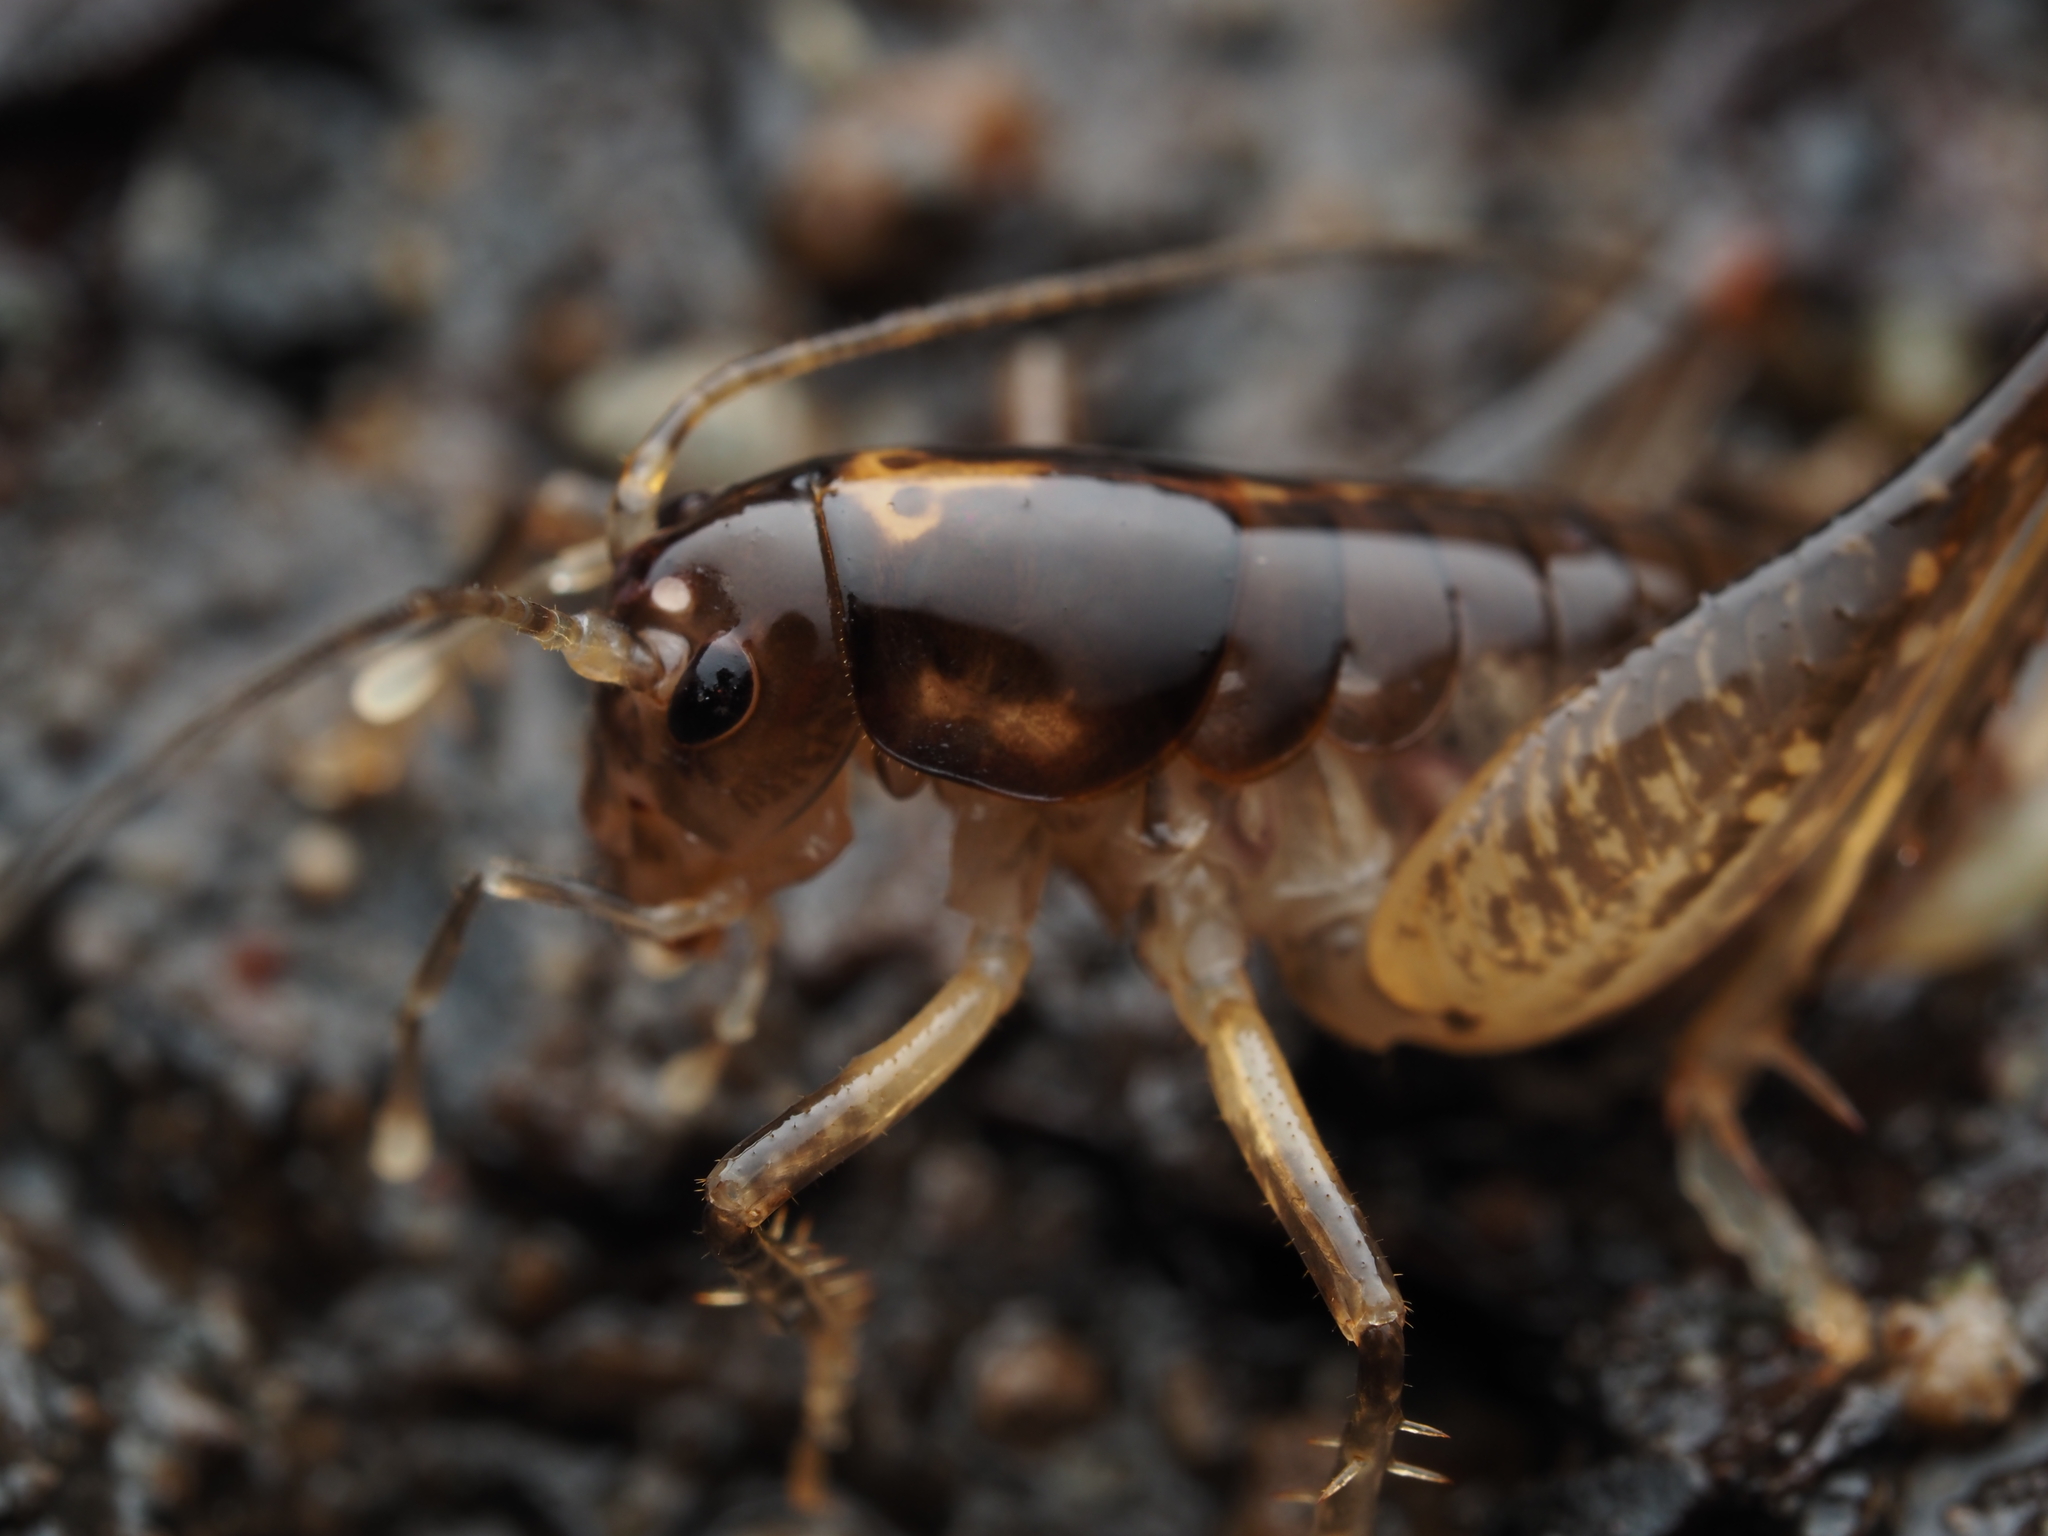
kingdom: Animalia
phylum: Arthropoda
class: Insecta
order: Orthoptera
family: Anostostomatidae
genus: Hemiandrus
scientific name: Hemiandrus brucei
